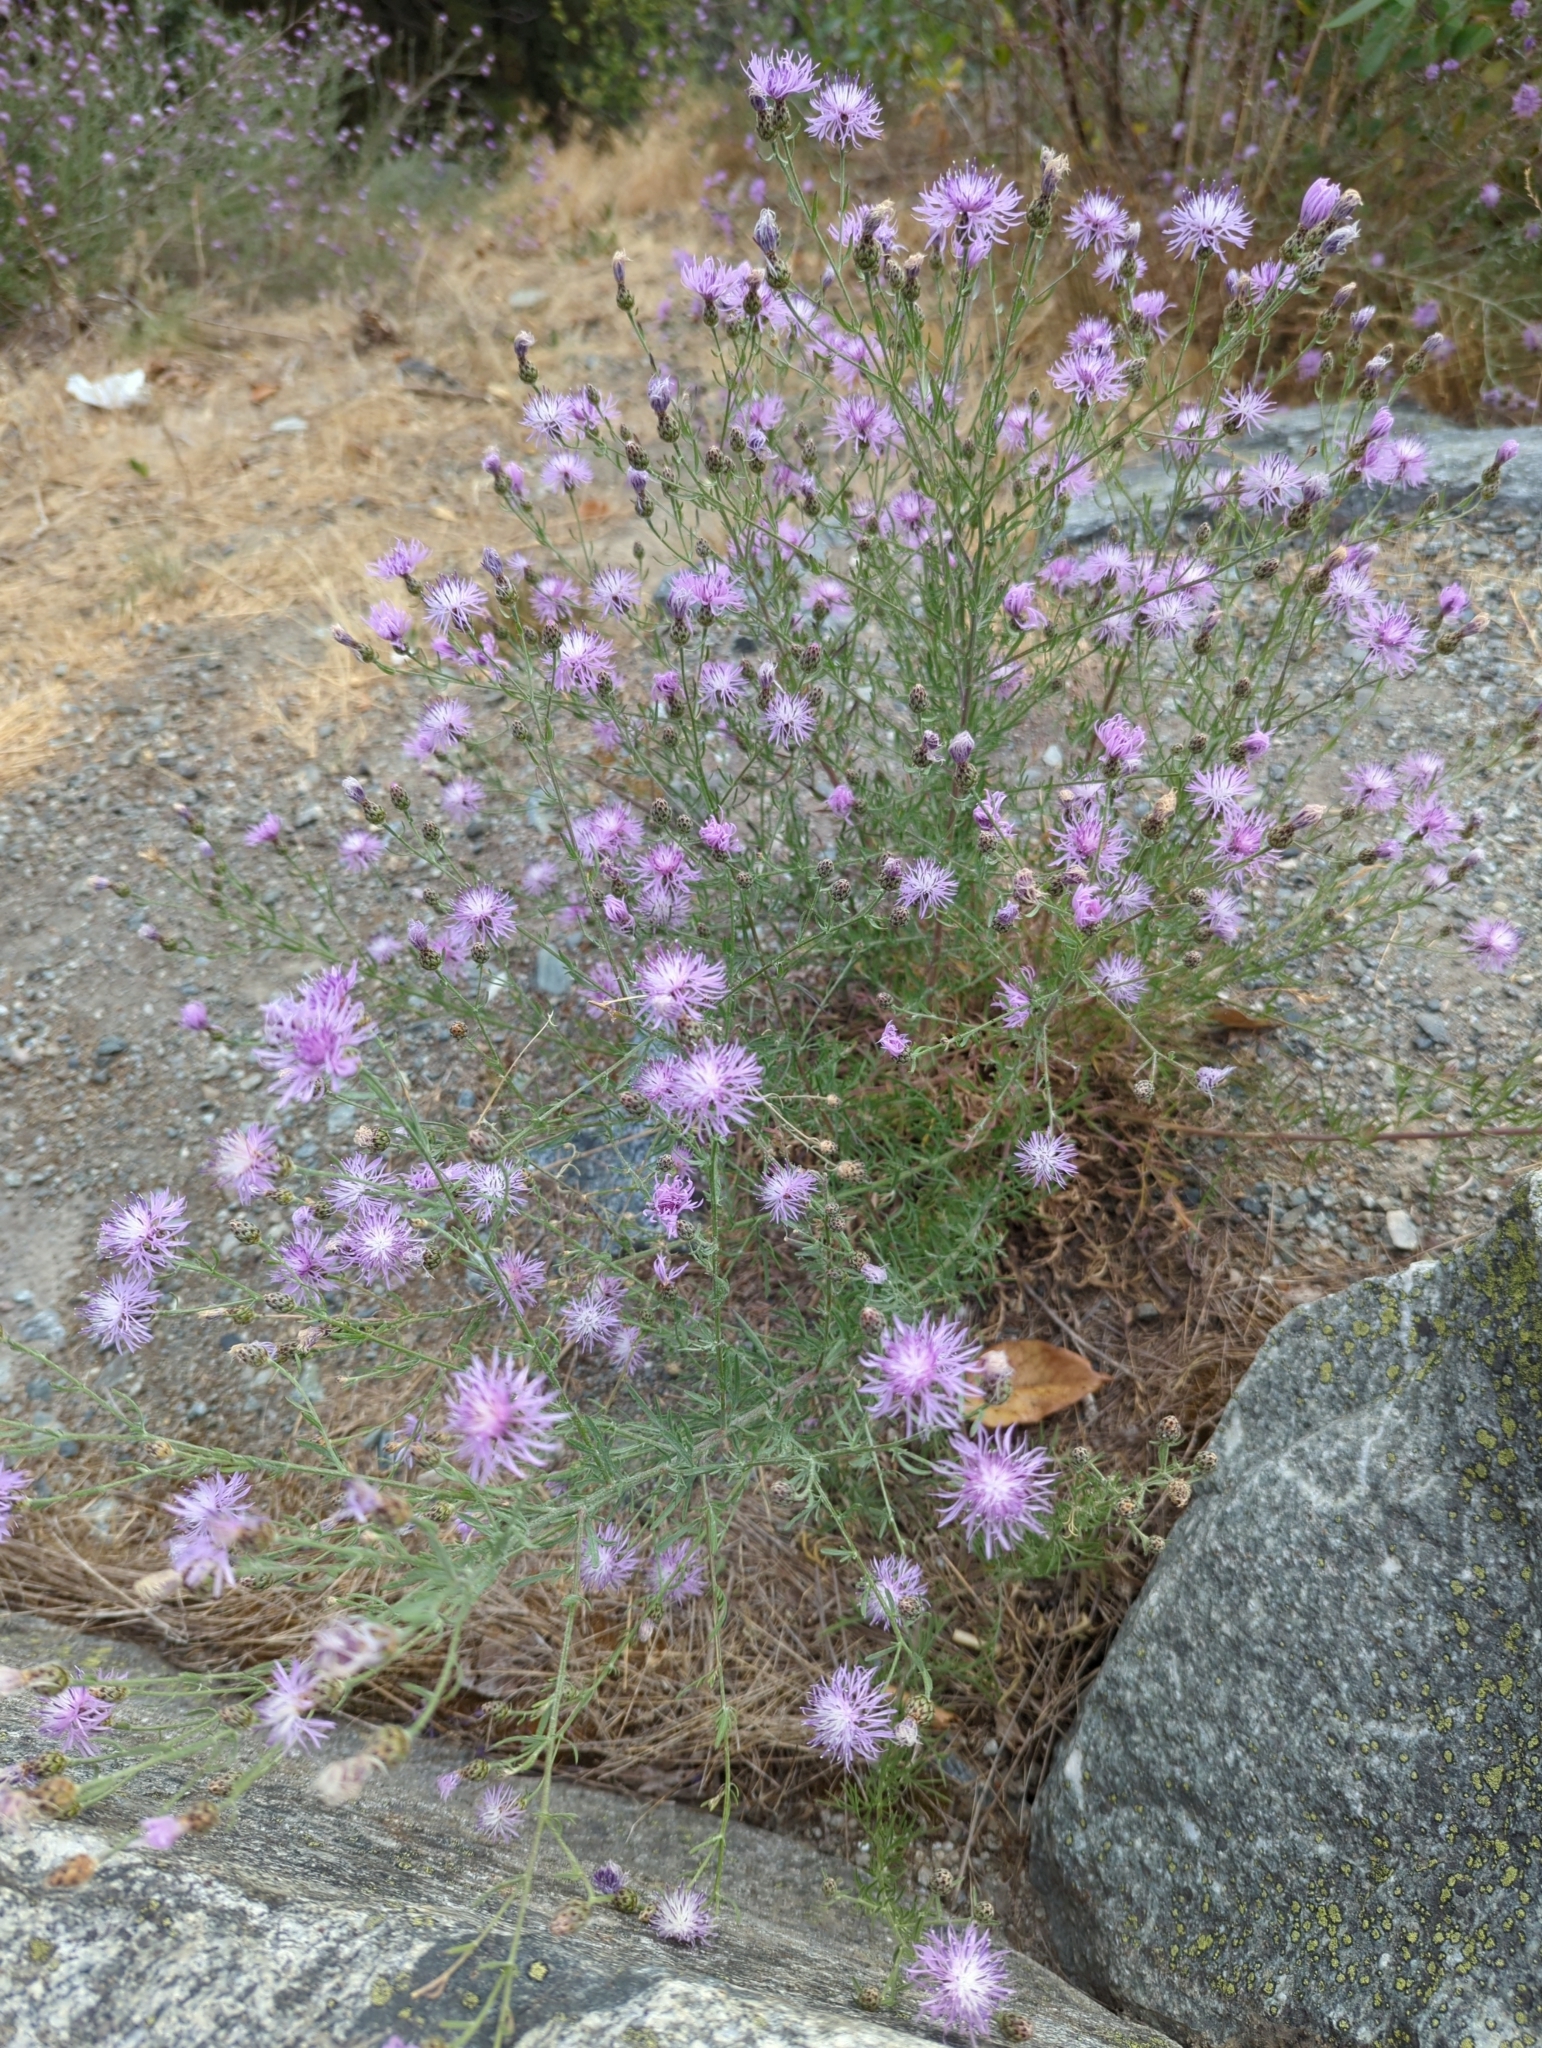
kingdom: Plantae
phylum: Tracheophyta
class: Magnoliopsida
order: Asterales
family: Asteraceae
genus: Centaurea
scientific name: Centaurea stoebe
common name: Spotted knapweed
